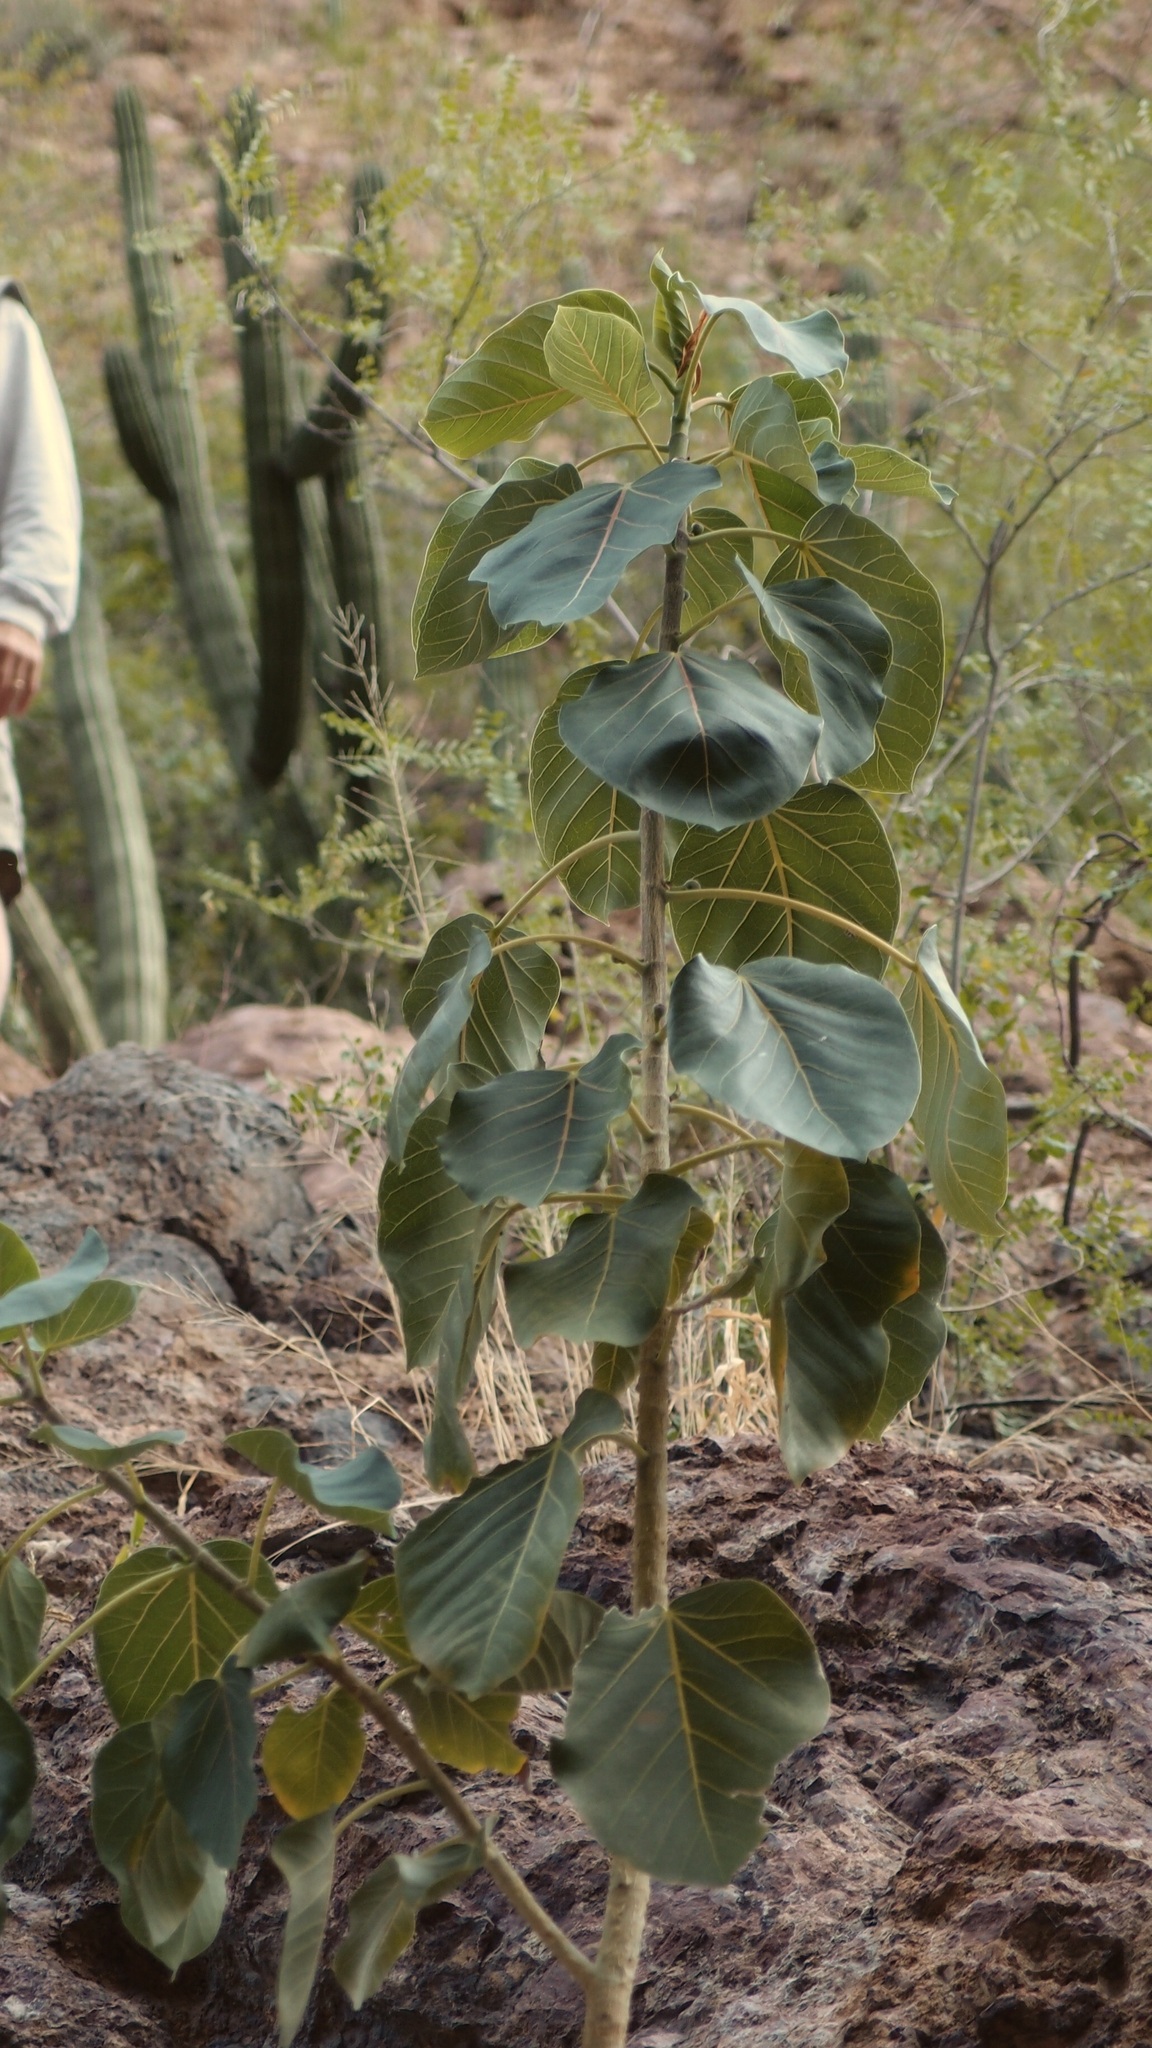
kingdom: Plantae
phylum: Tracheophyta
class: Magnoliopsida
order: Rosales
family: Moraceae
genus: Ficus
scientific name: Ficus petiolaris
